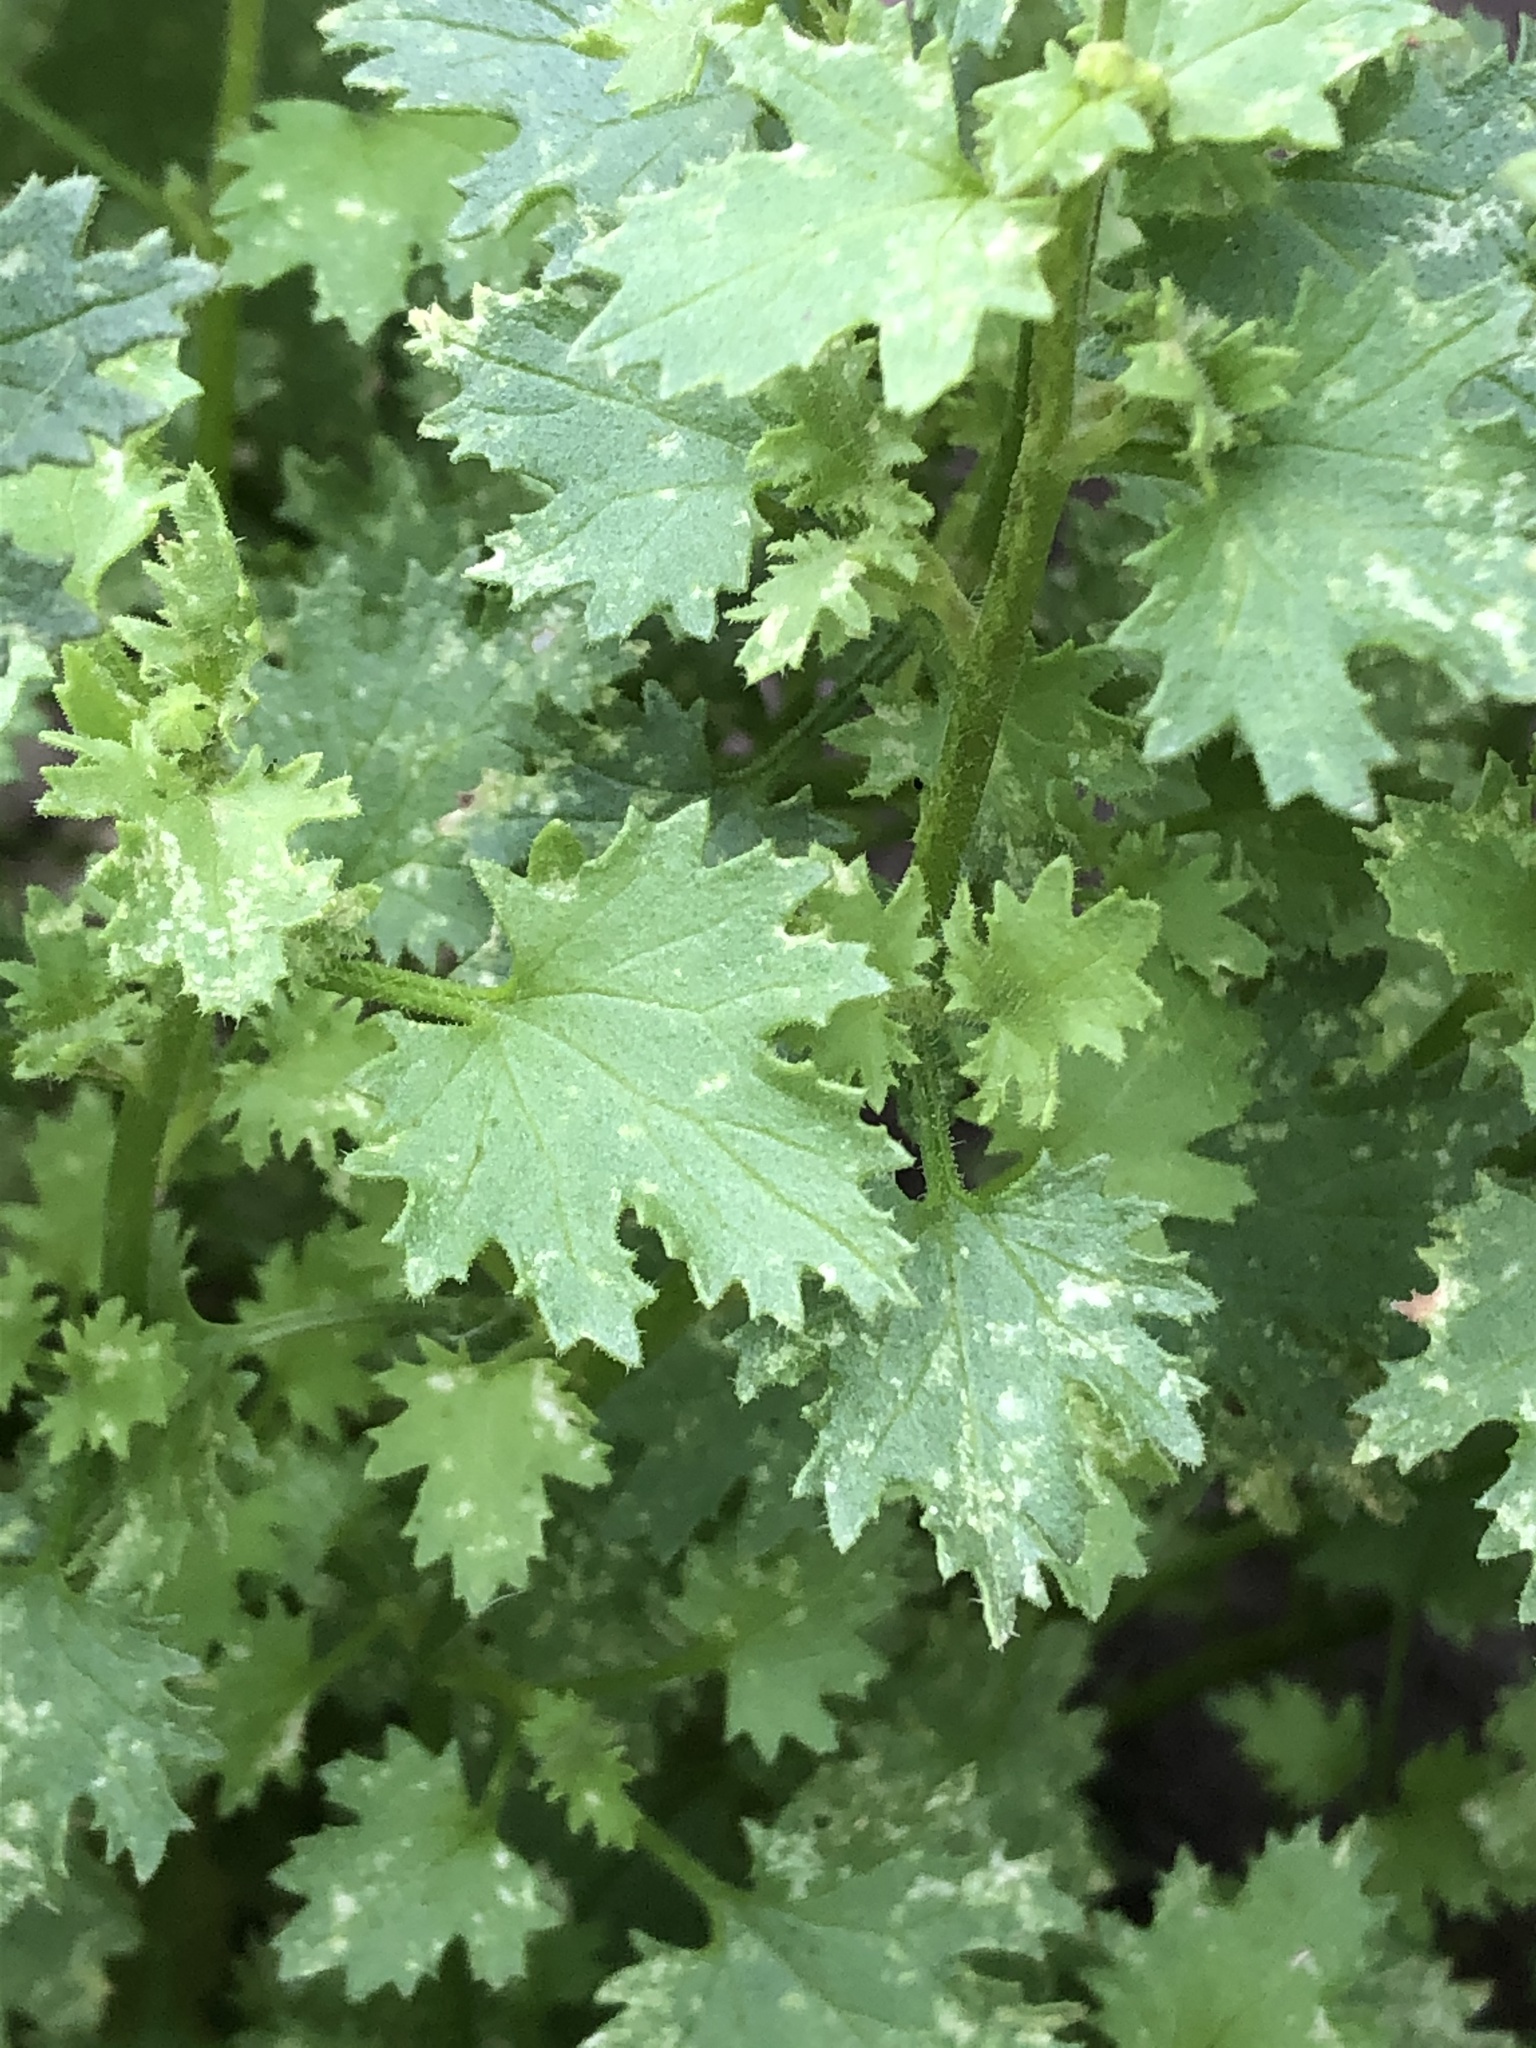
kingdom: Plantae
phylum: Tracheophyta
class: Magnoliopsida
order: Asterales
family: Asteraceae
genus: Laphamia
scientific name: Laphamia emoryi
